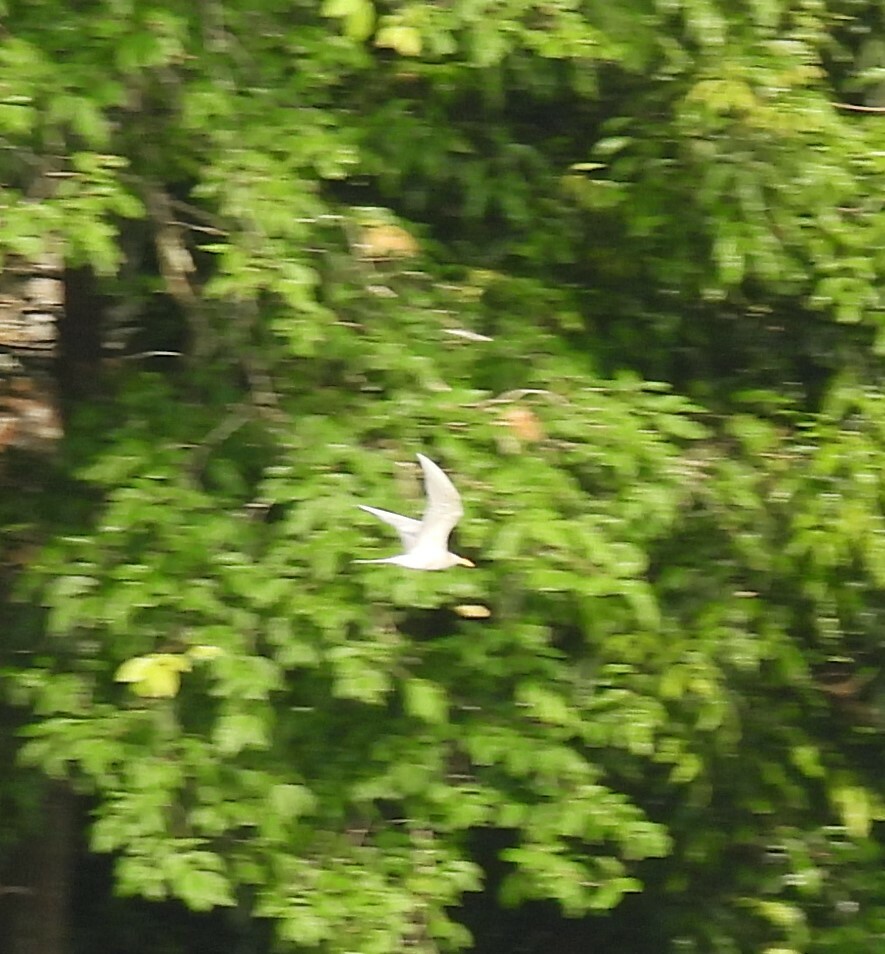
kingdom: Animalia
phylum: Chordata
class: Aves
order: Charadriiformes
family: Laridae
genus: Sterna
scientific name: Sterna aurantia
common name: River tern
